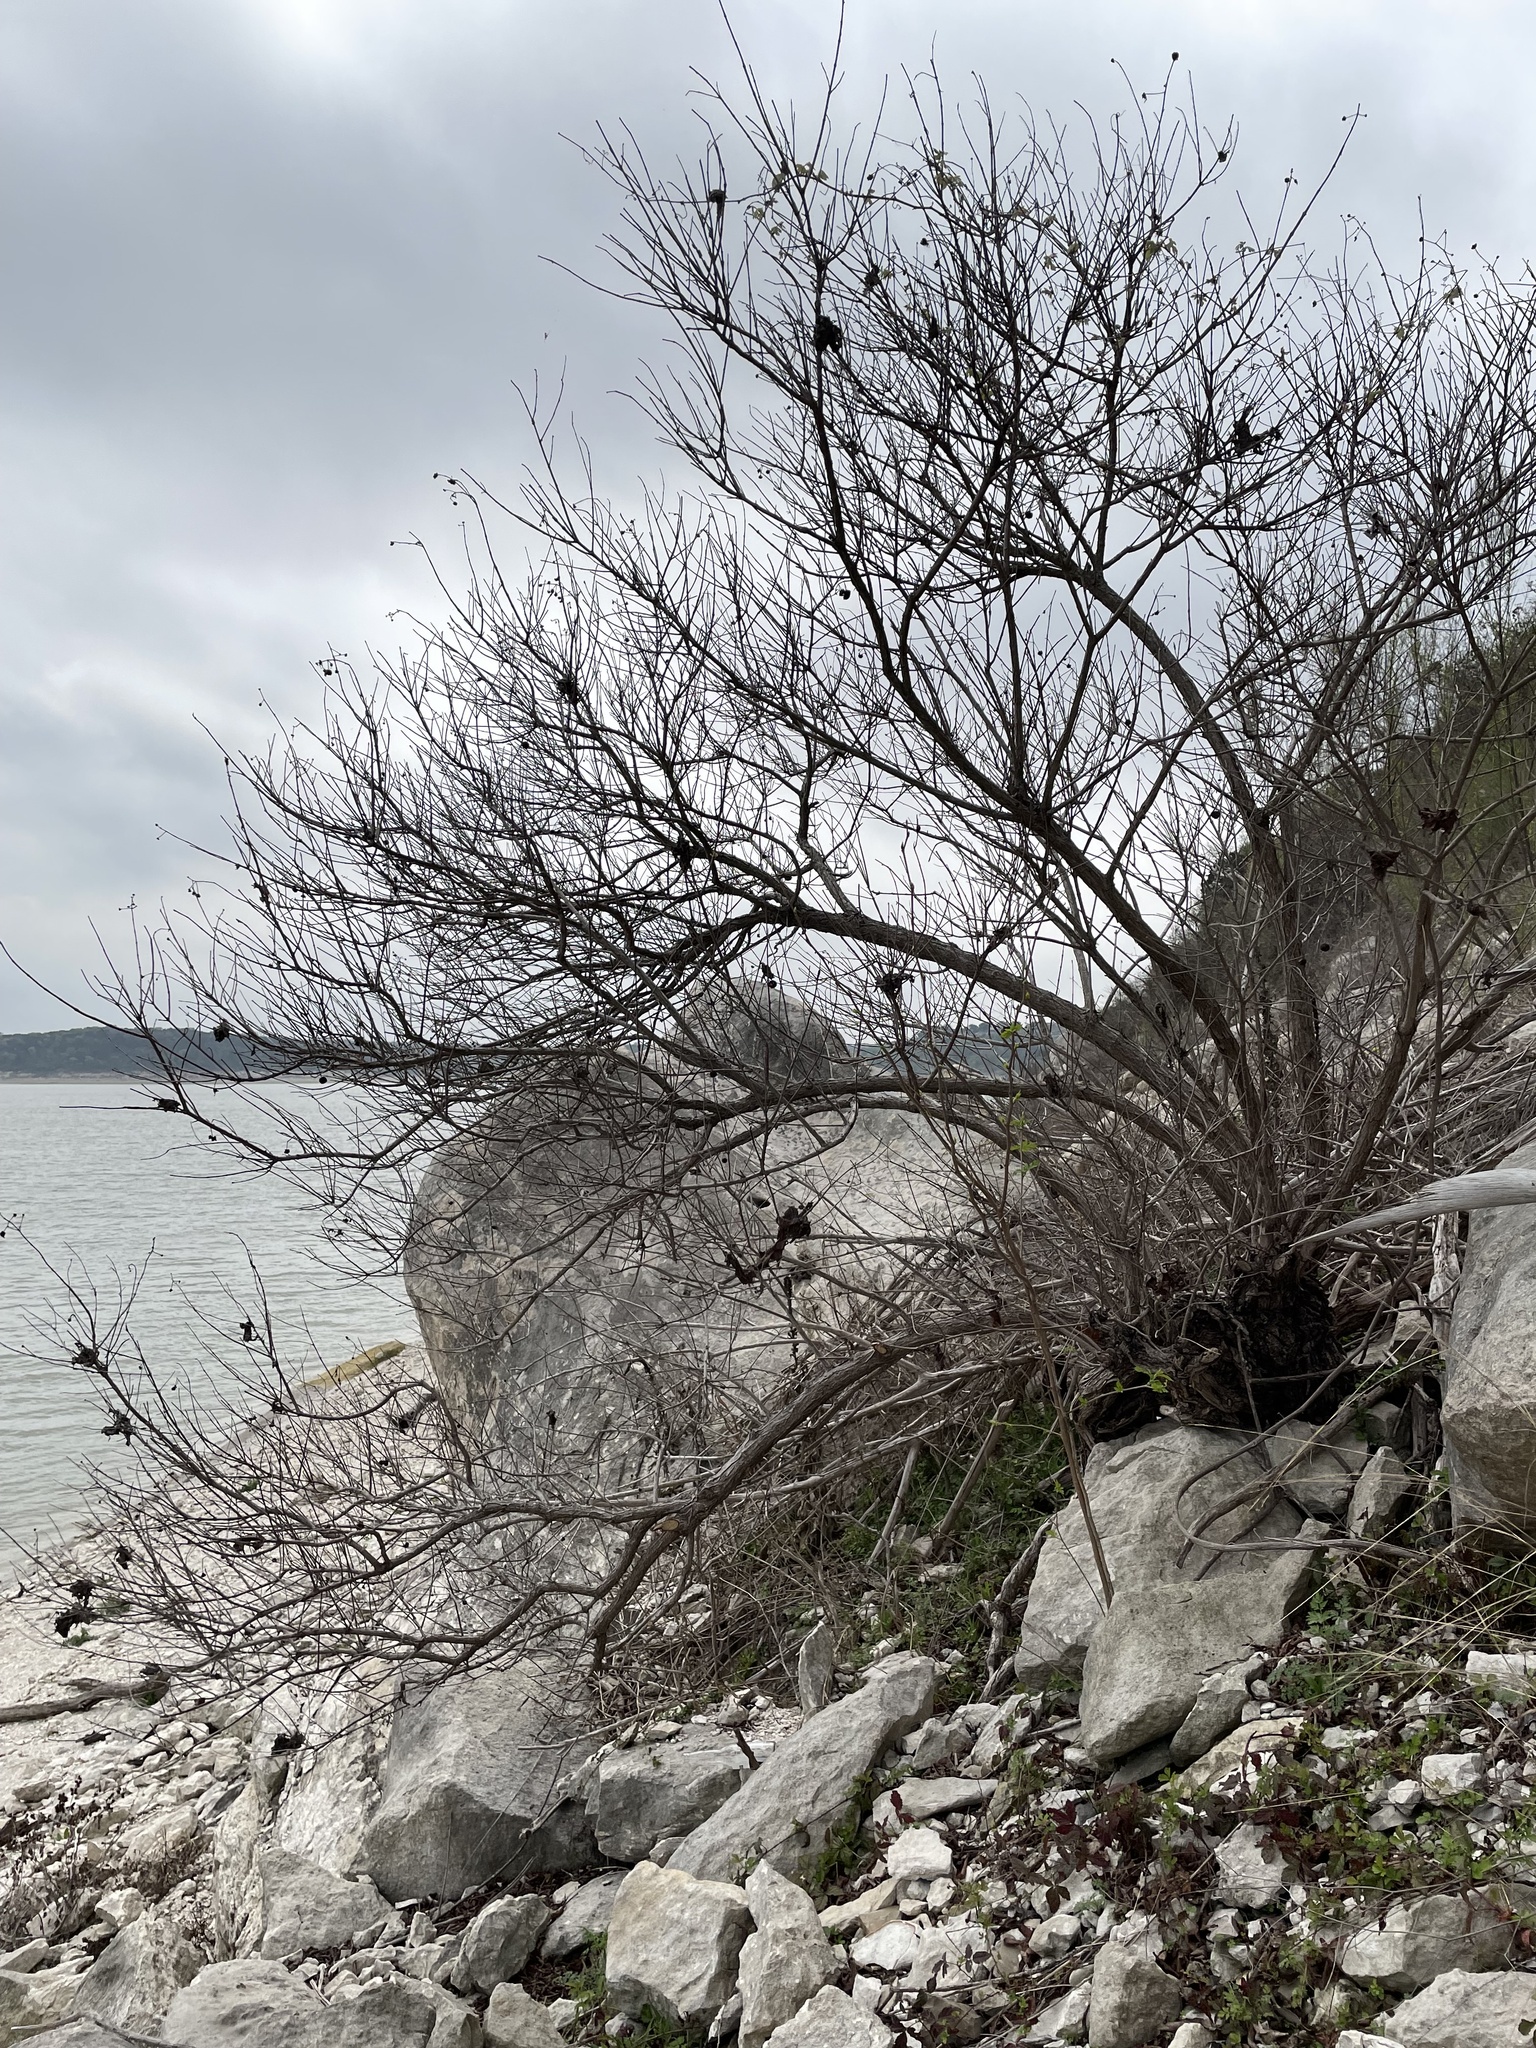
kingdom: Plantae
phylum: Tracheophyta
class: Magnoliopsida
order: Gentianales
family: Rubiaceae
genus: Cephalanthus
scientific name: Cephalanthus occidentalis
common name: Button-willow
